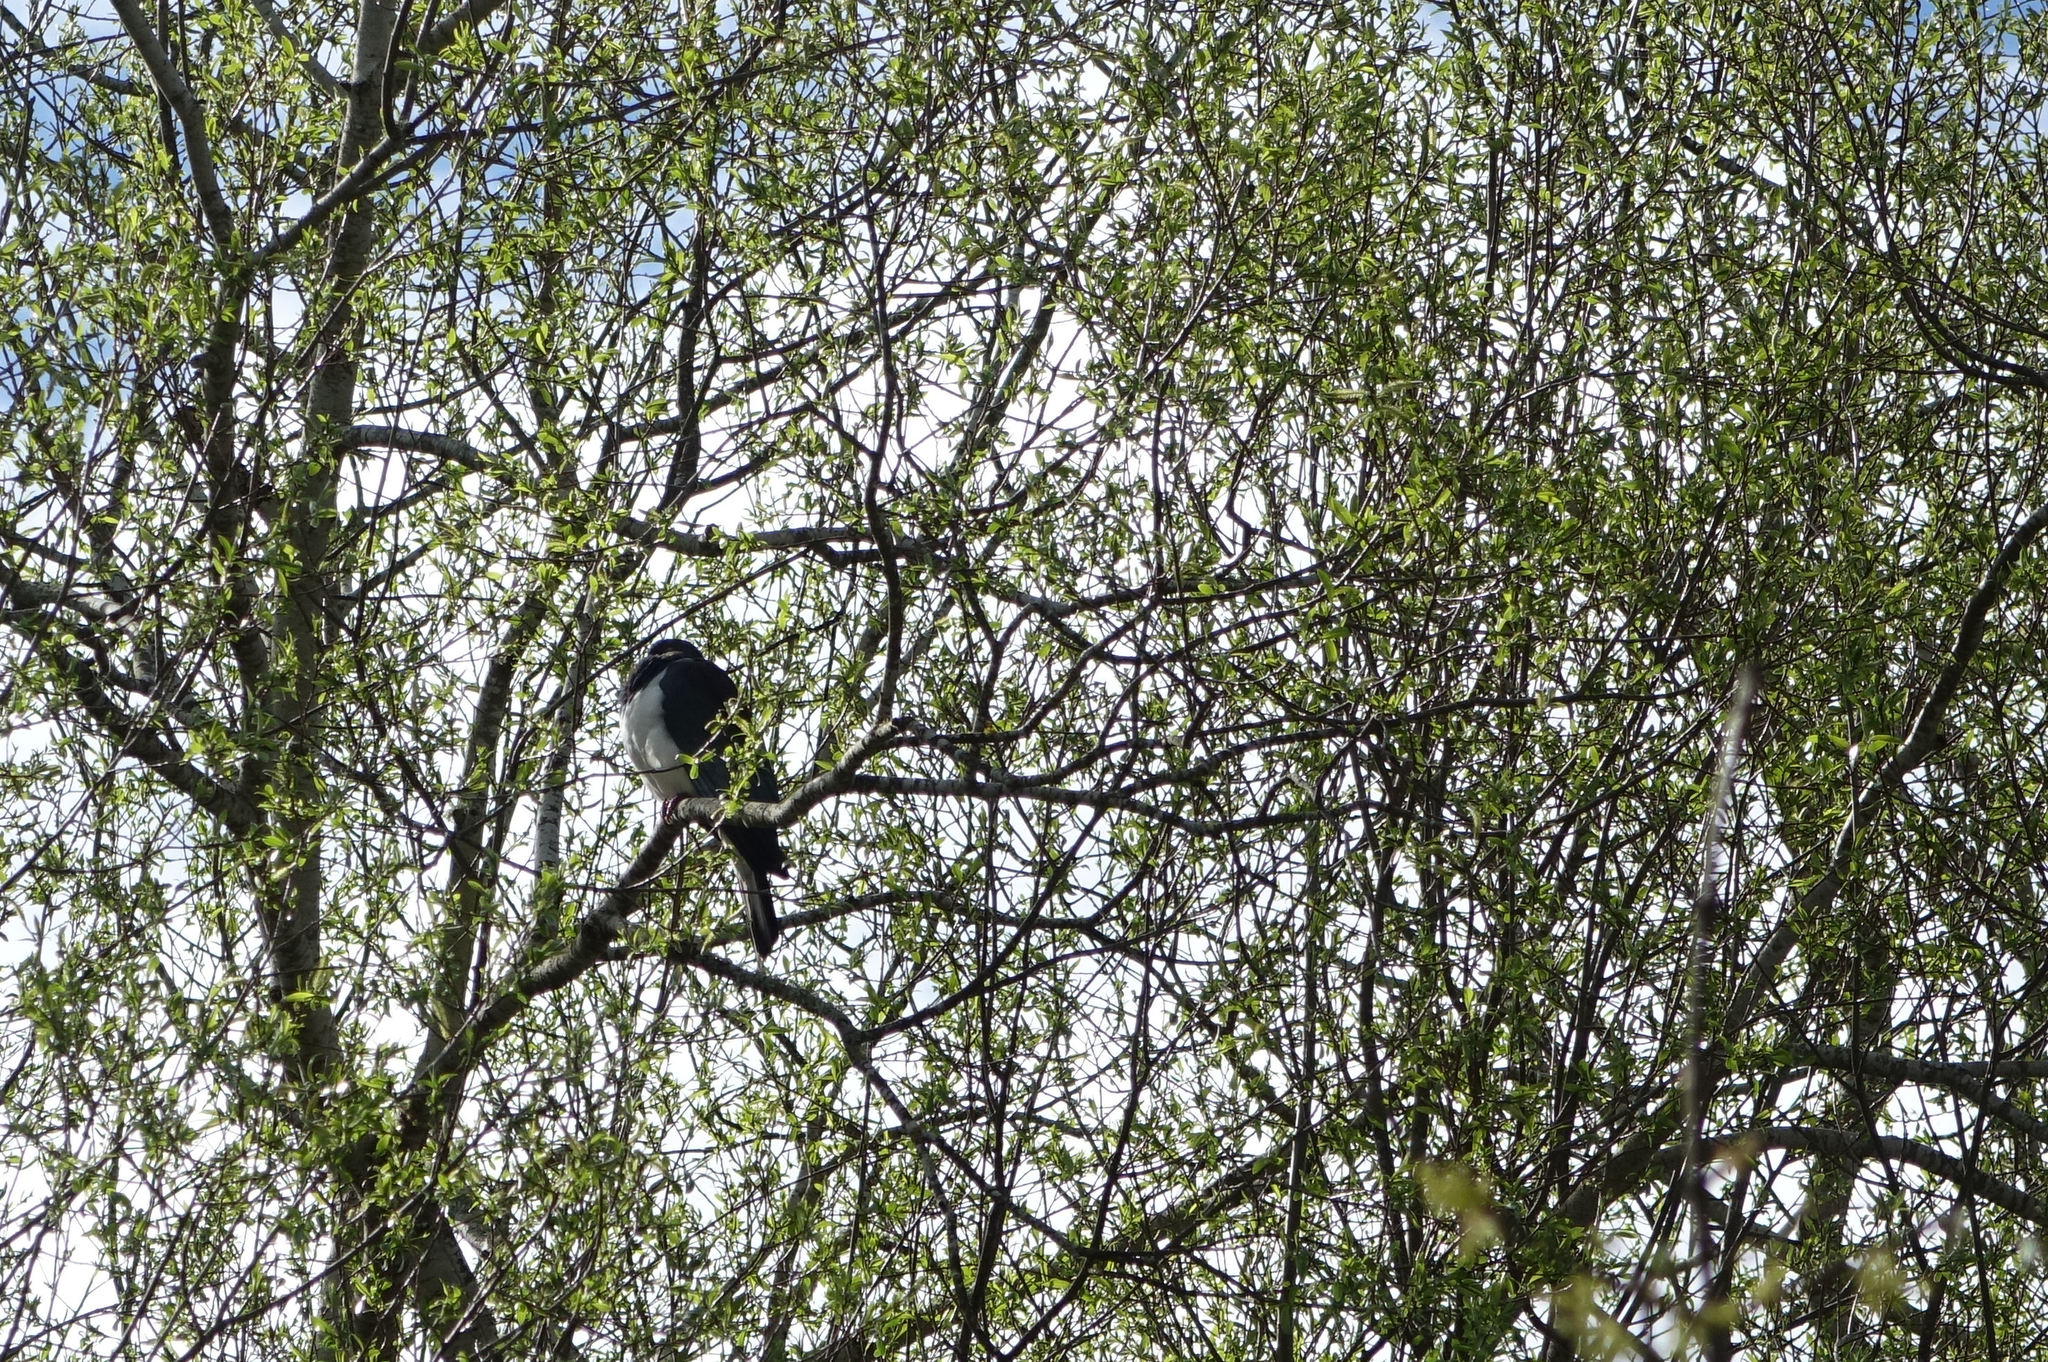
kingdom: Animalia
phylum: Chordata
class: Aves
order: Columbiformes
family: Columbidae
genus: Hemiphaga
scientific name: Hemiphaga novaeseelandiae
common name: New zealand pigeon
